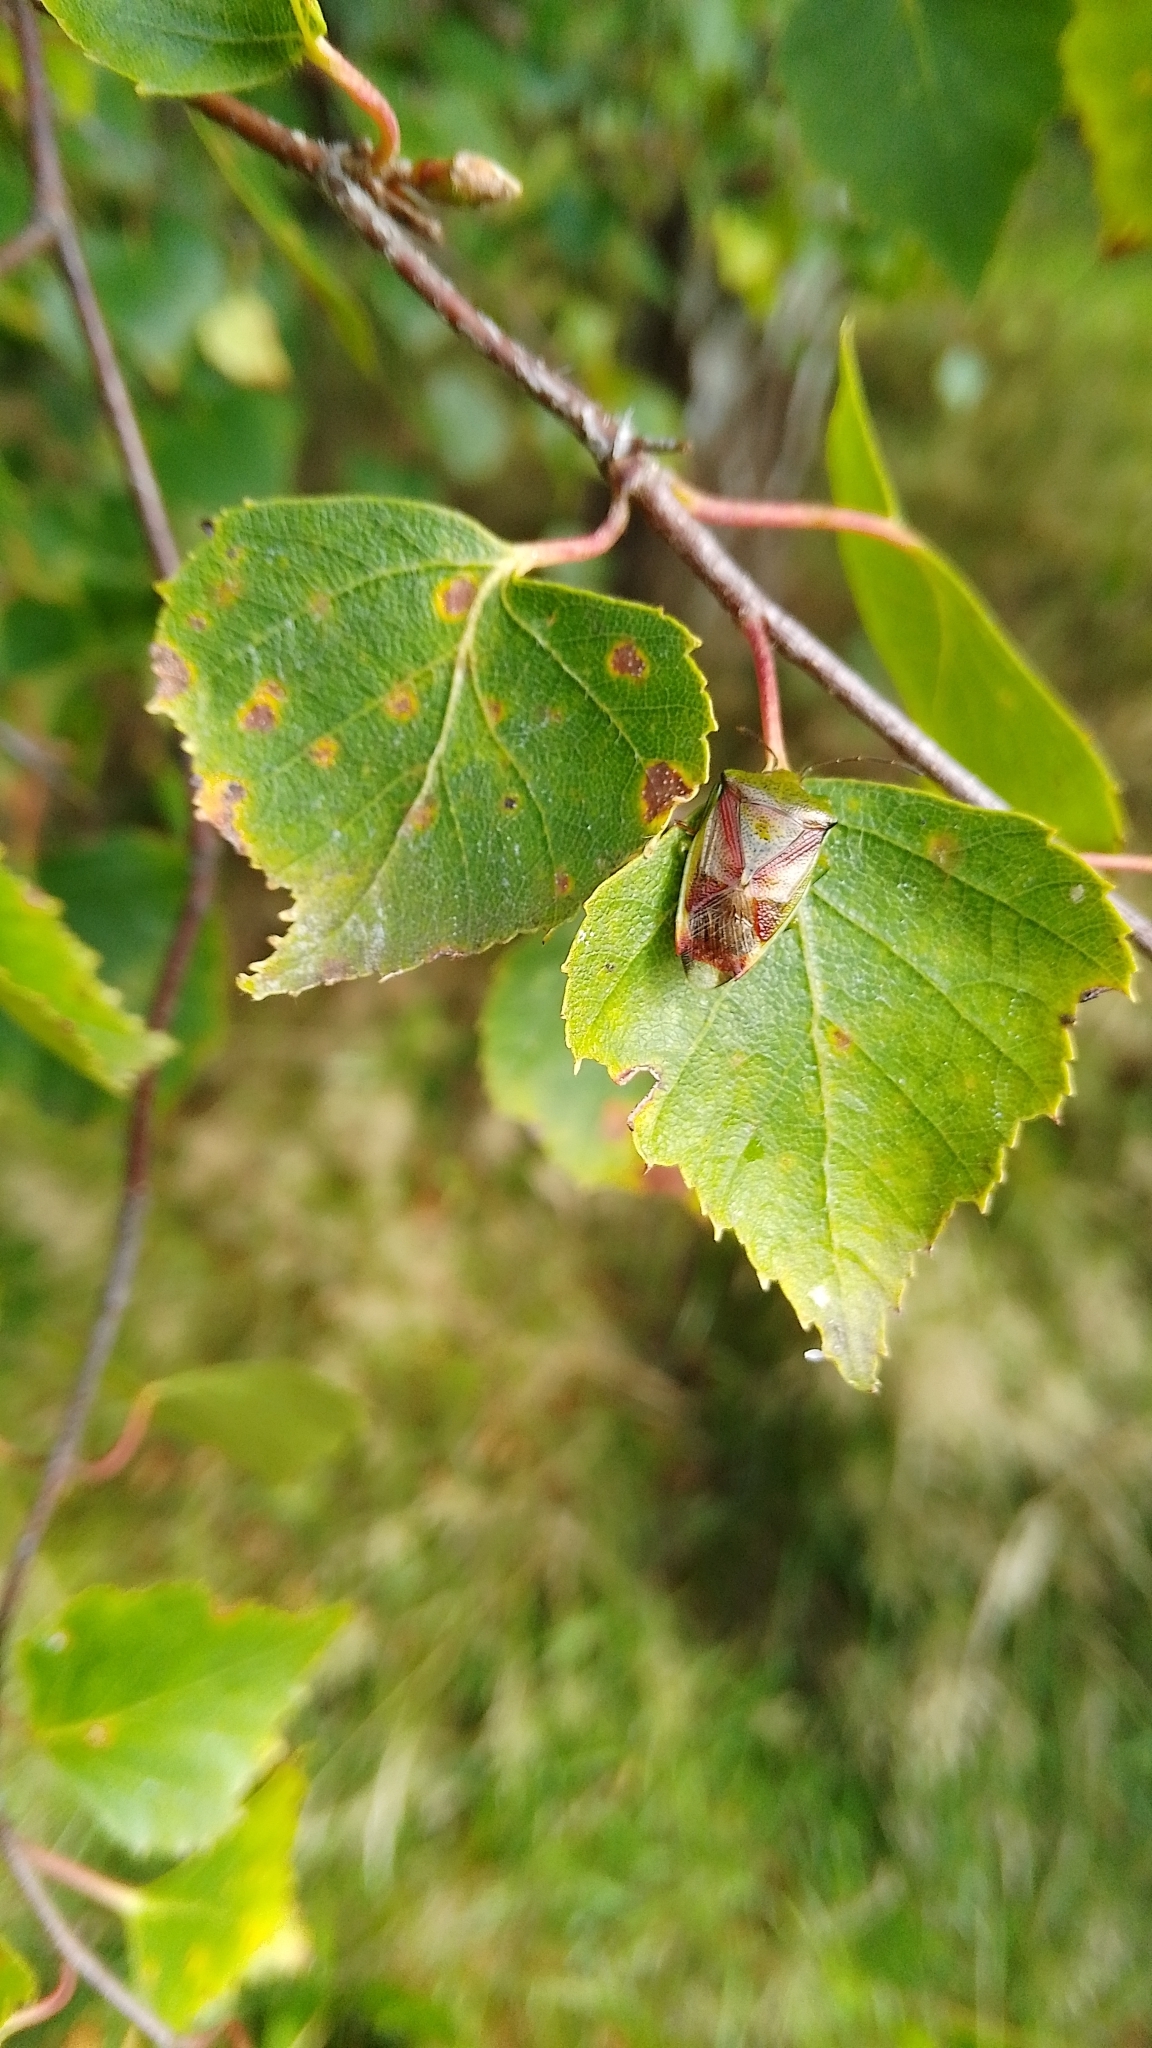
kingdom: Animalia
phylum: Arthropoda
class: Insecta
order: Hemiptera
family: Acanthosomatidae
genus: Elasmostethus
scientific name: Elasmostethus interstinctus
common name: Birch shieldbug
